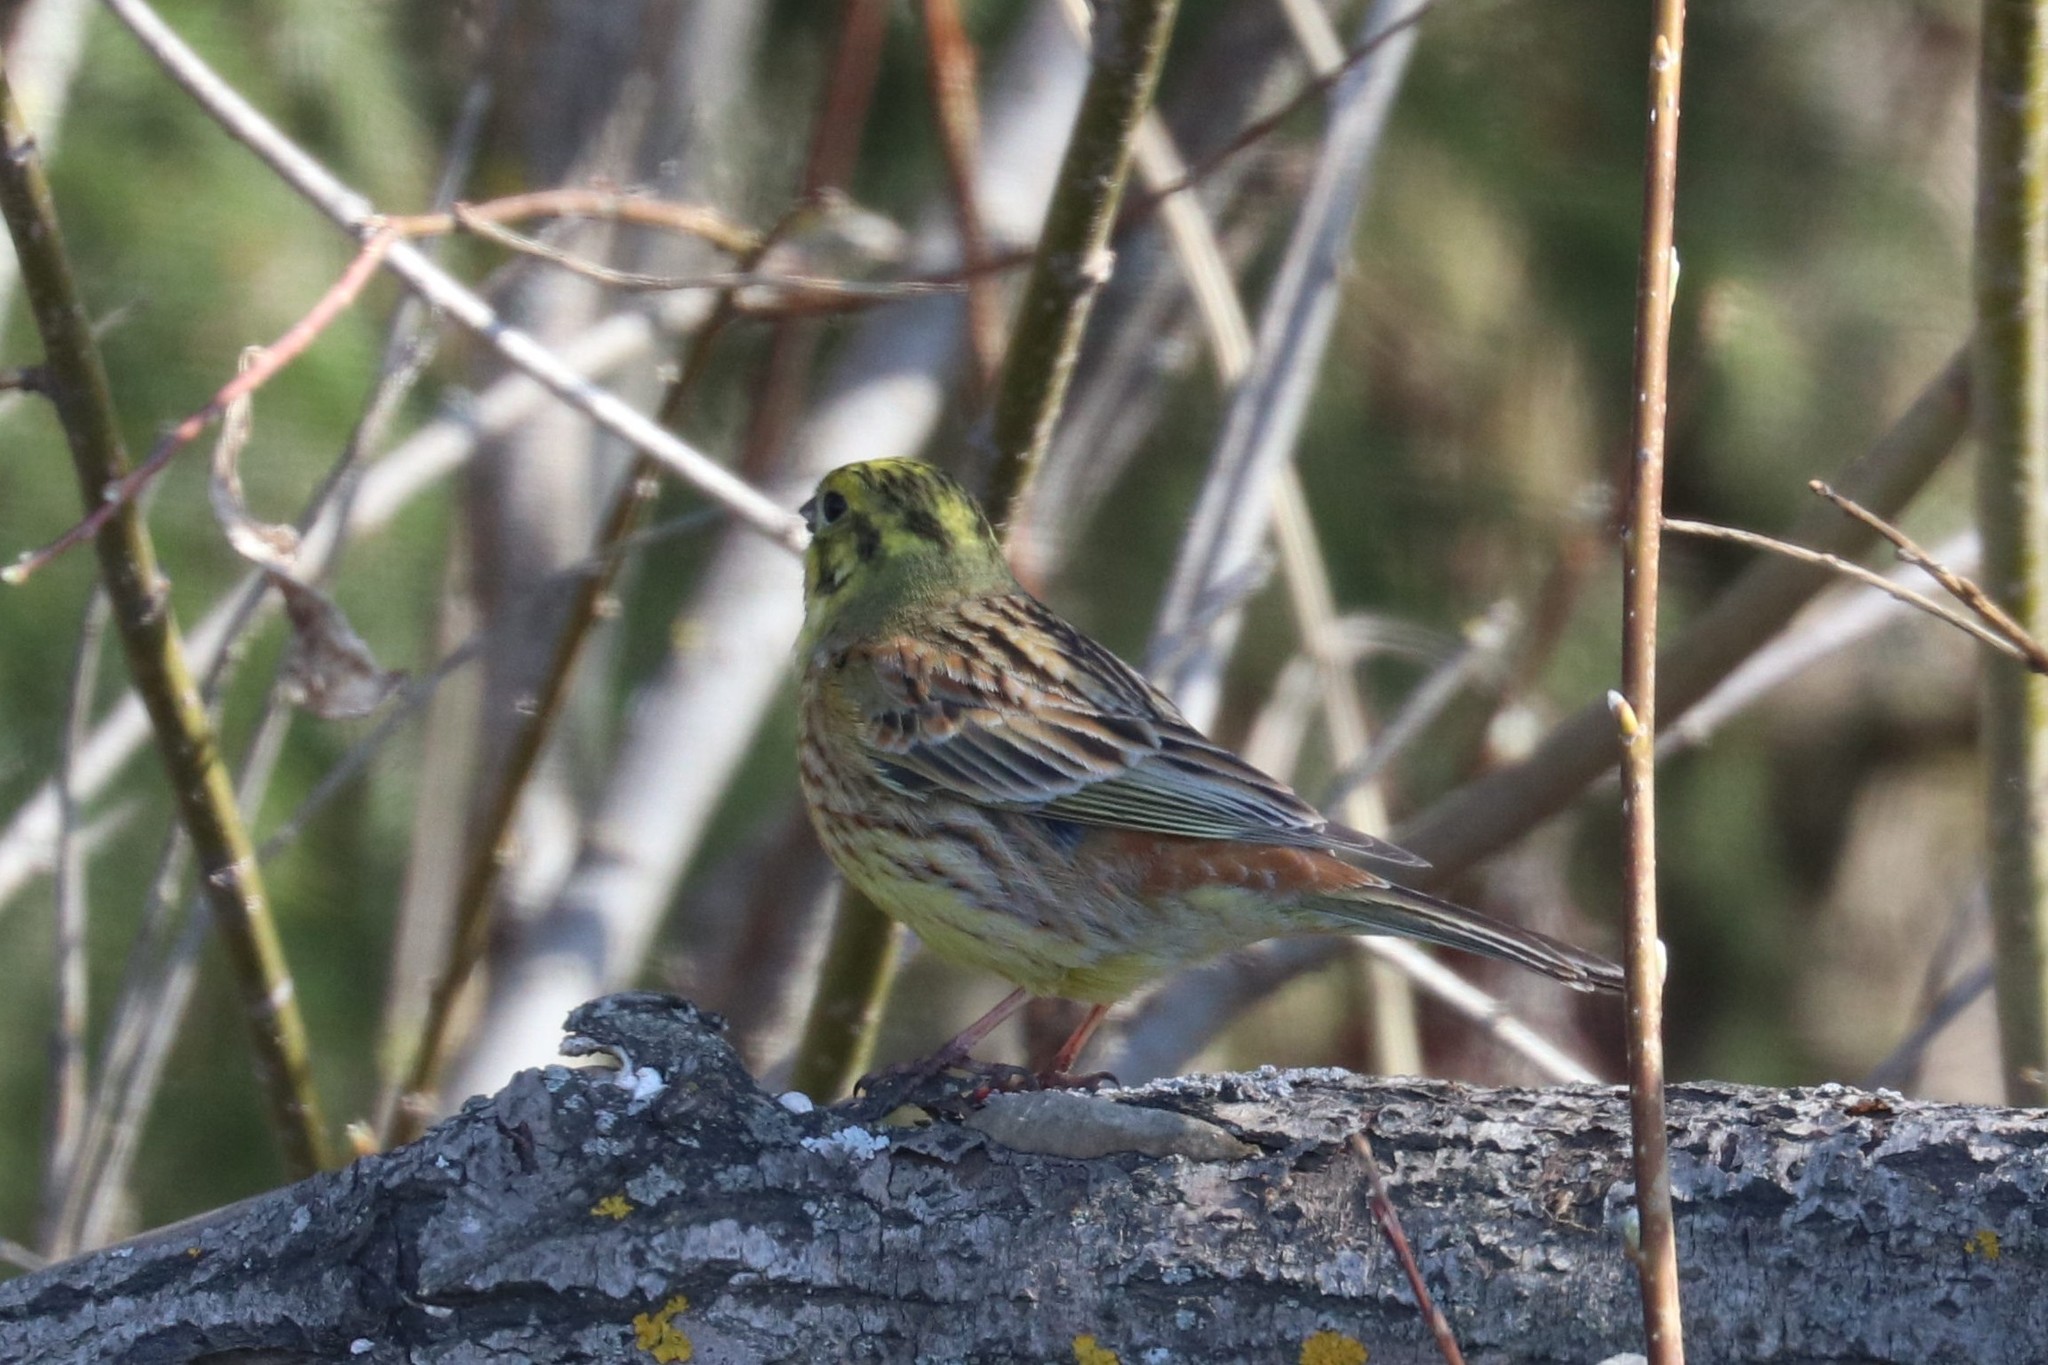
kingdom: Animalia
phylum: Chordata
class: Aves
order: Passeriformes
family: Emberizidae
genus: Emberiza
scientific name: Emberiza citrinella
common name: Yellowhammer
